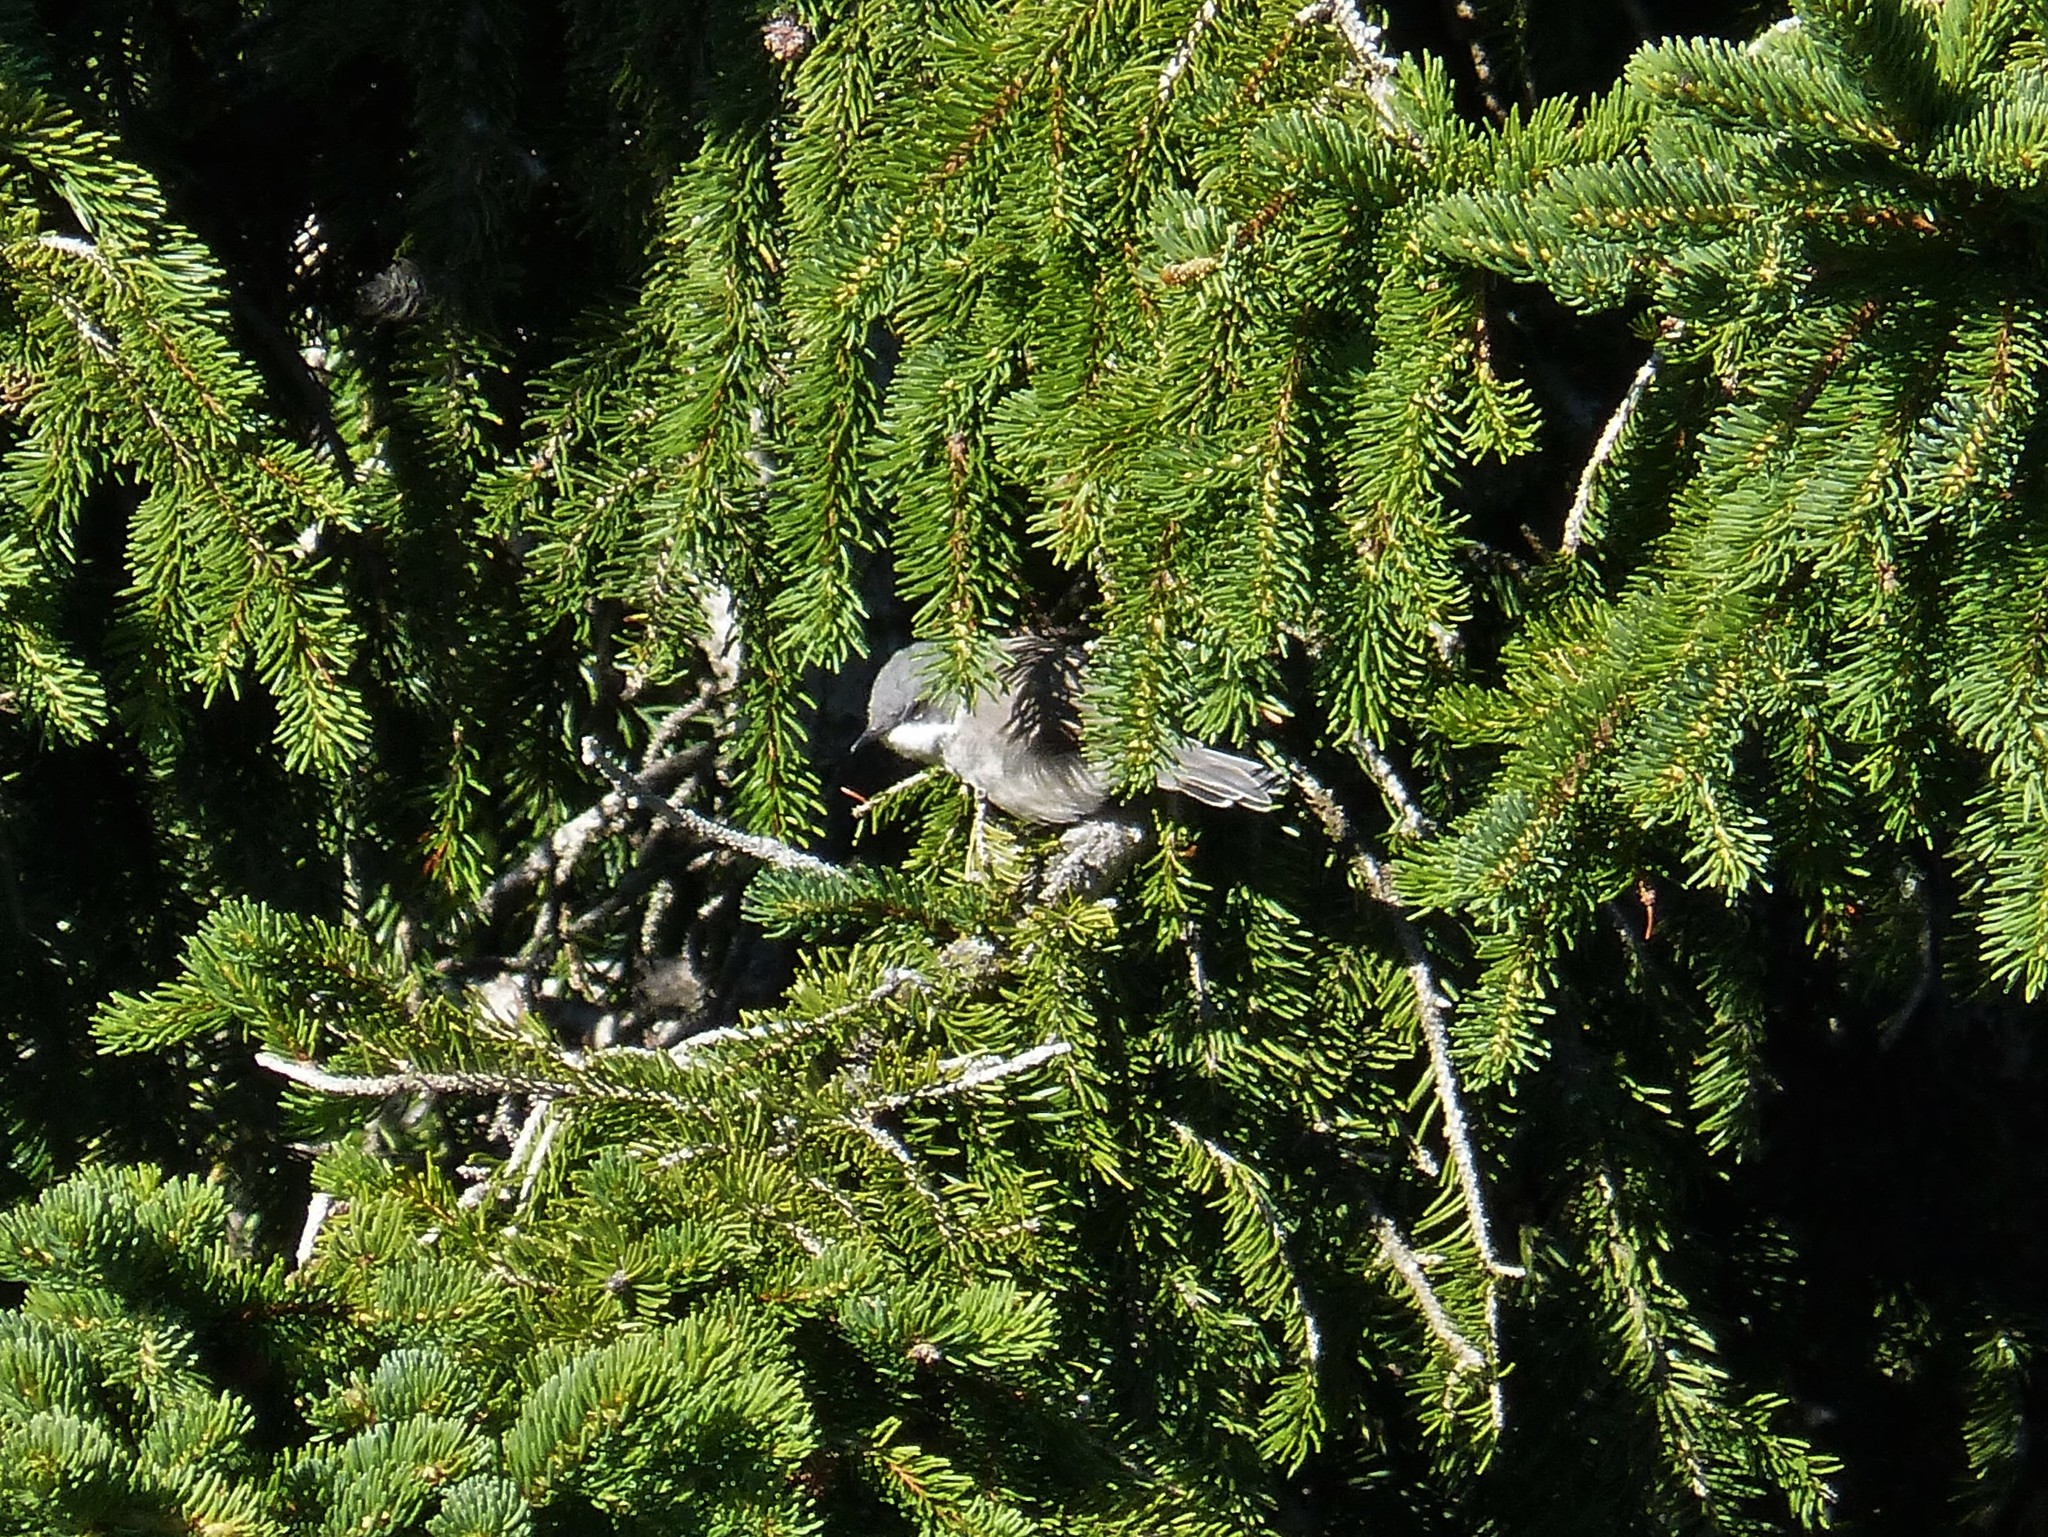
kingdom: Animalia
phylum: Chordata
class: Aves
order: Passeriformes
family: Sylviidae
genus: Sylvia
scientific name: Sylvia curruca
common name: Lesser whitethroat
